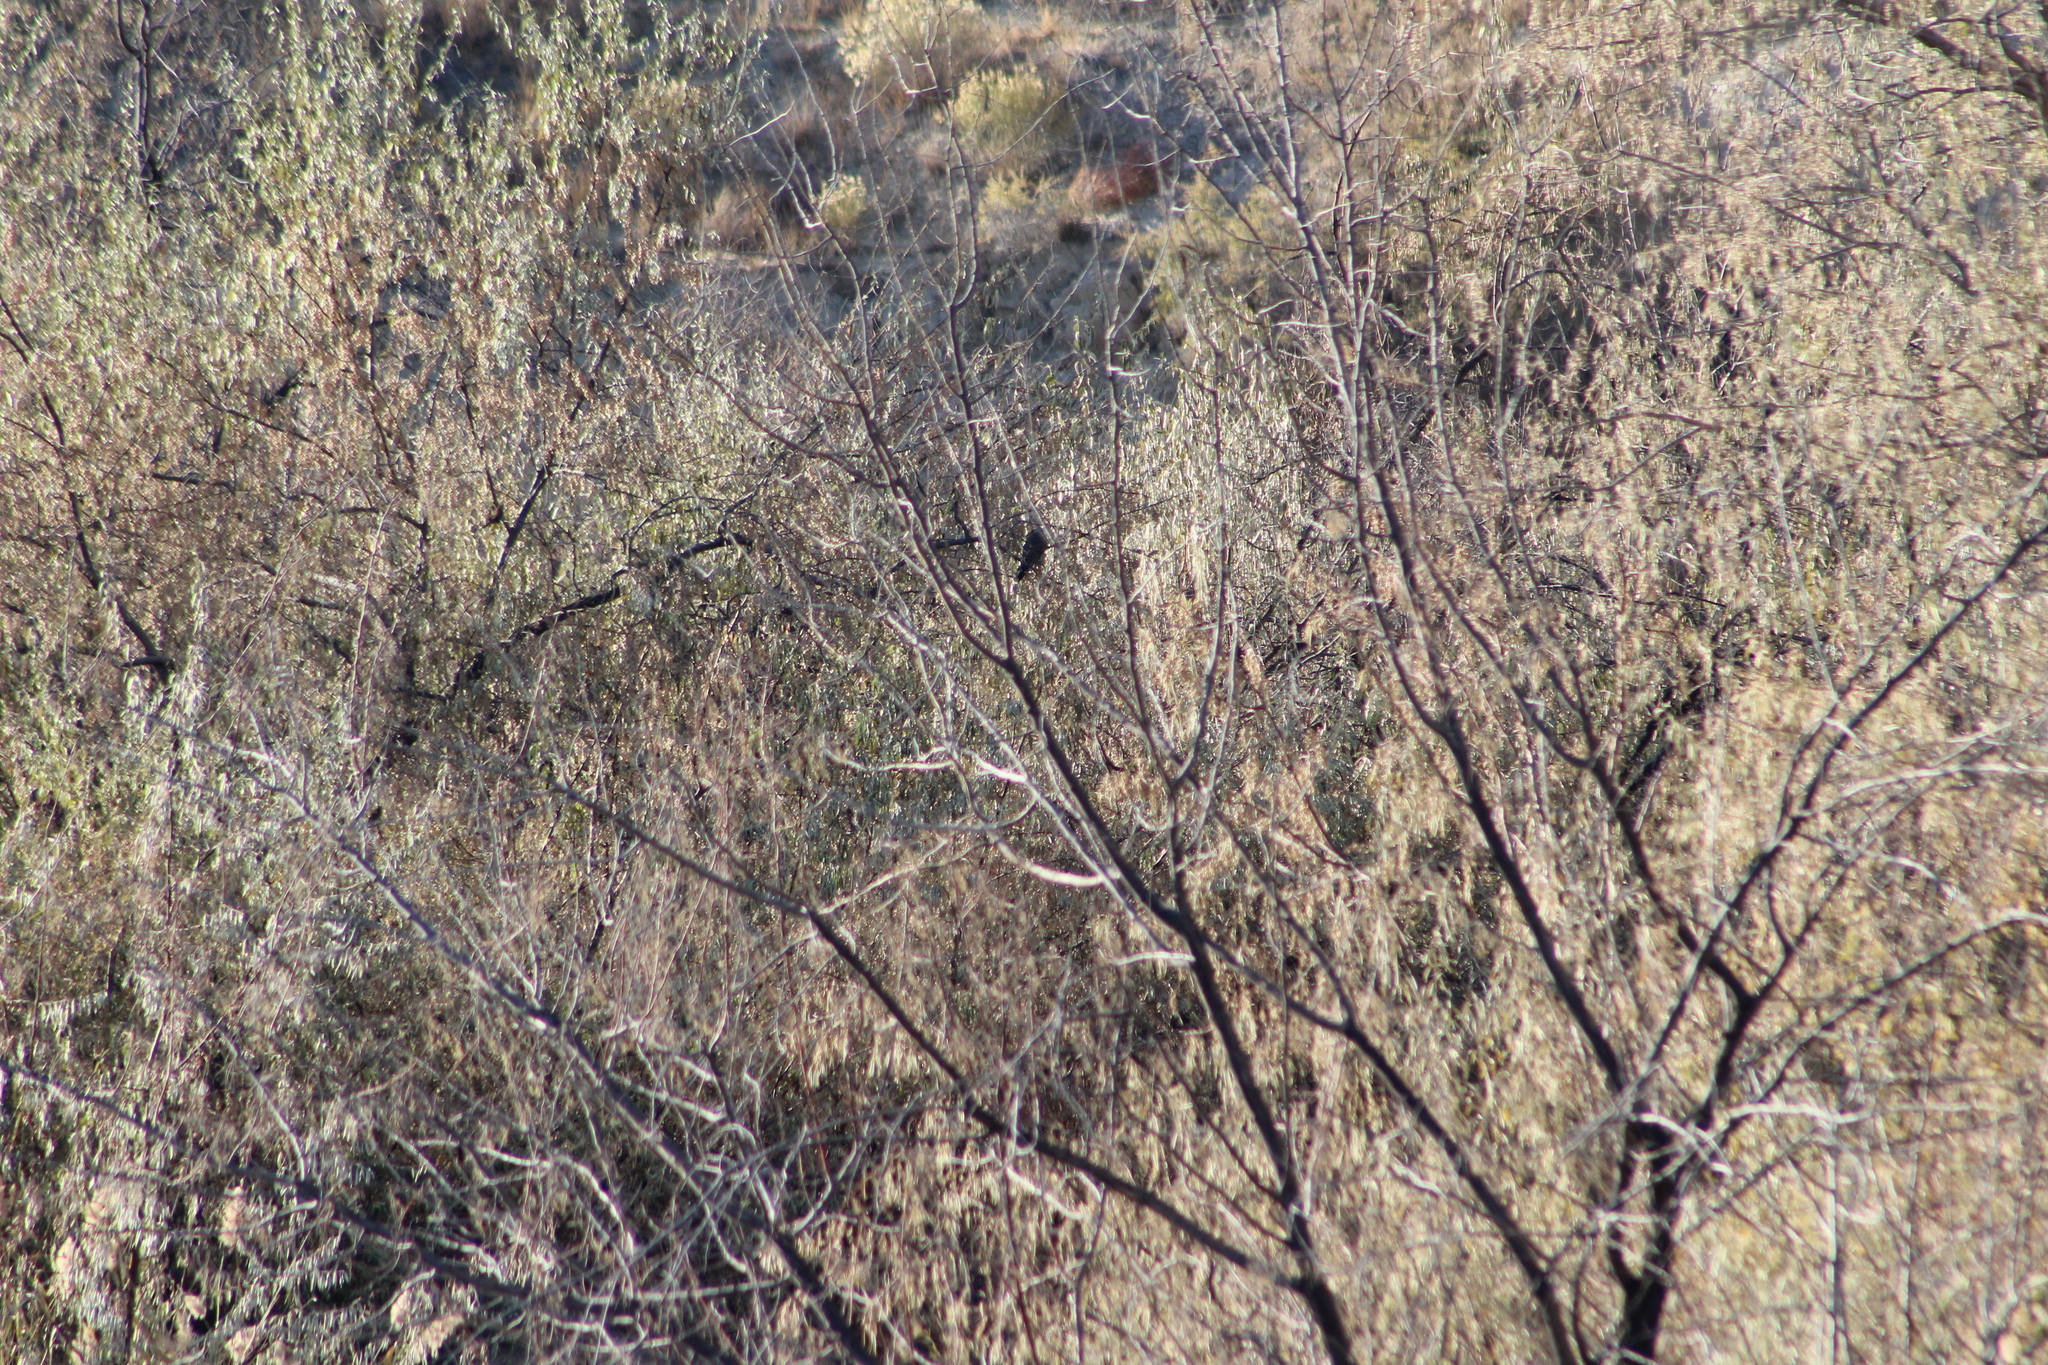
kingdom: Animalia
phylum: Chordata
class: Aves
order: Piciformes
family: Picidae
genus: Colaptes
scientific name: Colaptes auratus
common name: Northern flicker
